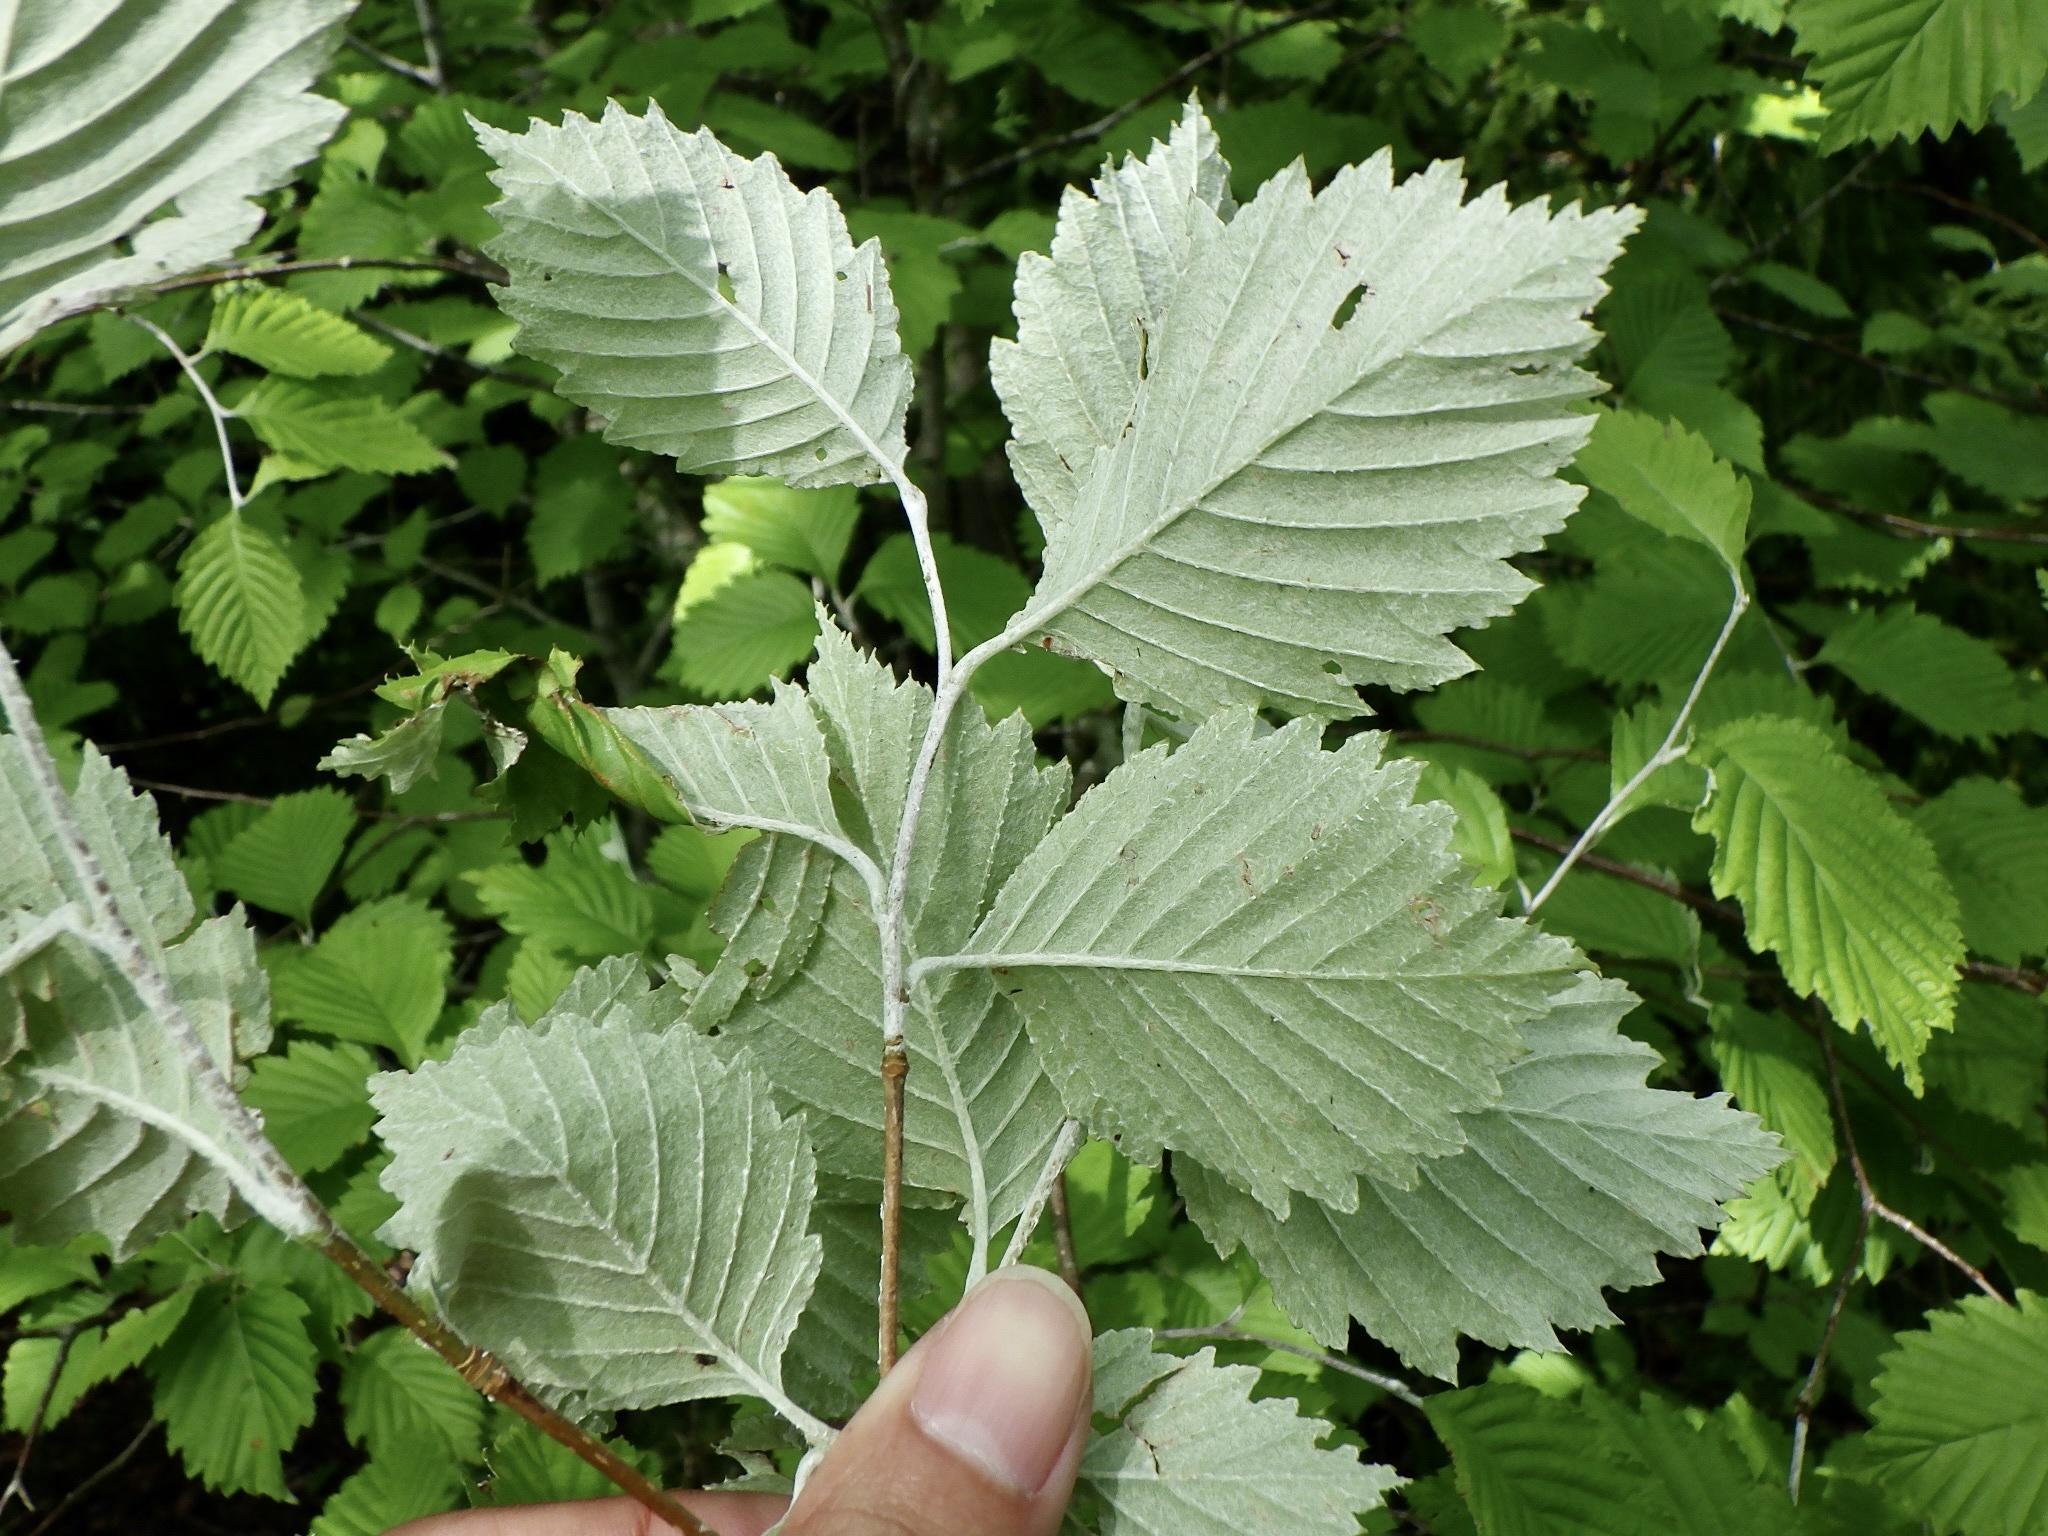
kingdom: Plantae
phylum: Tracheophyta
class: Magnoliopsida
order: Rosales
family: Rosaceae
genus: Sorbus
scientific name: Sorbus japonica
